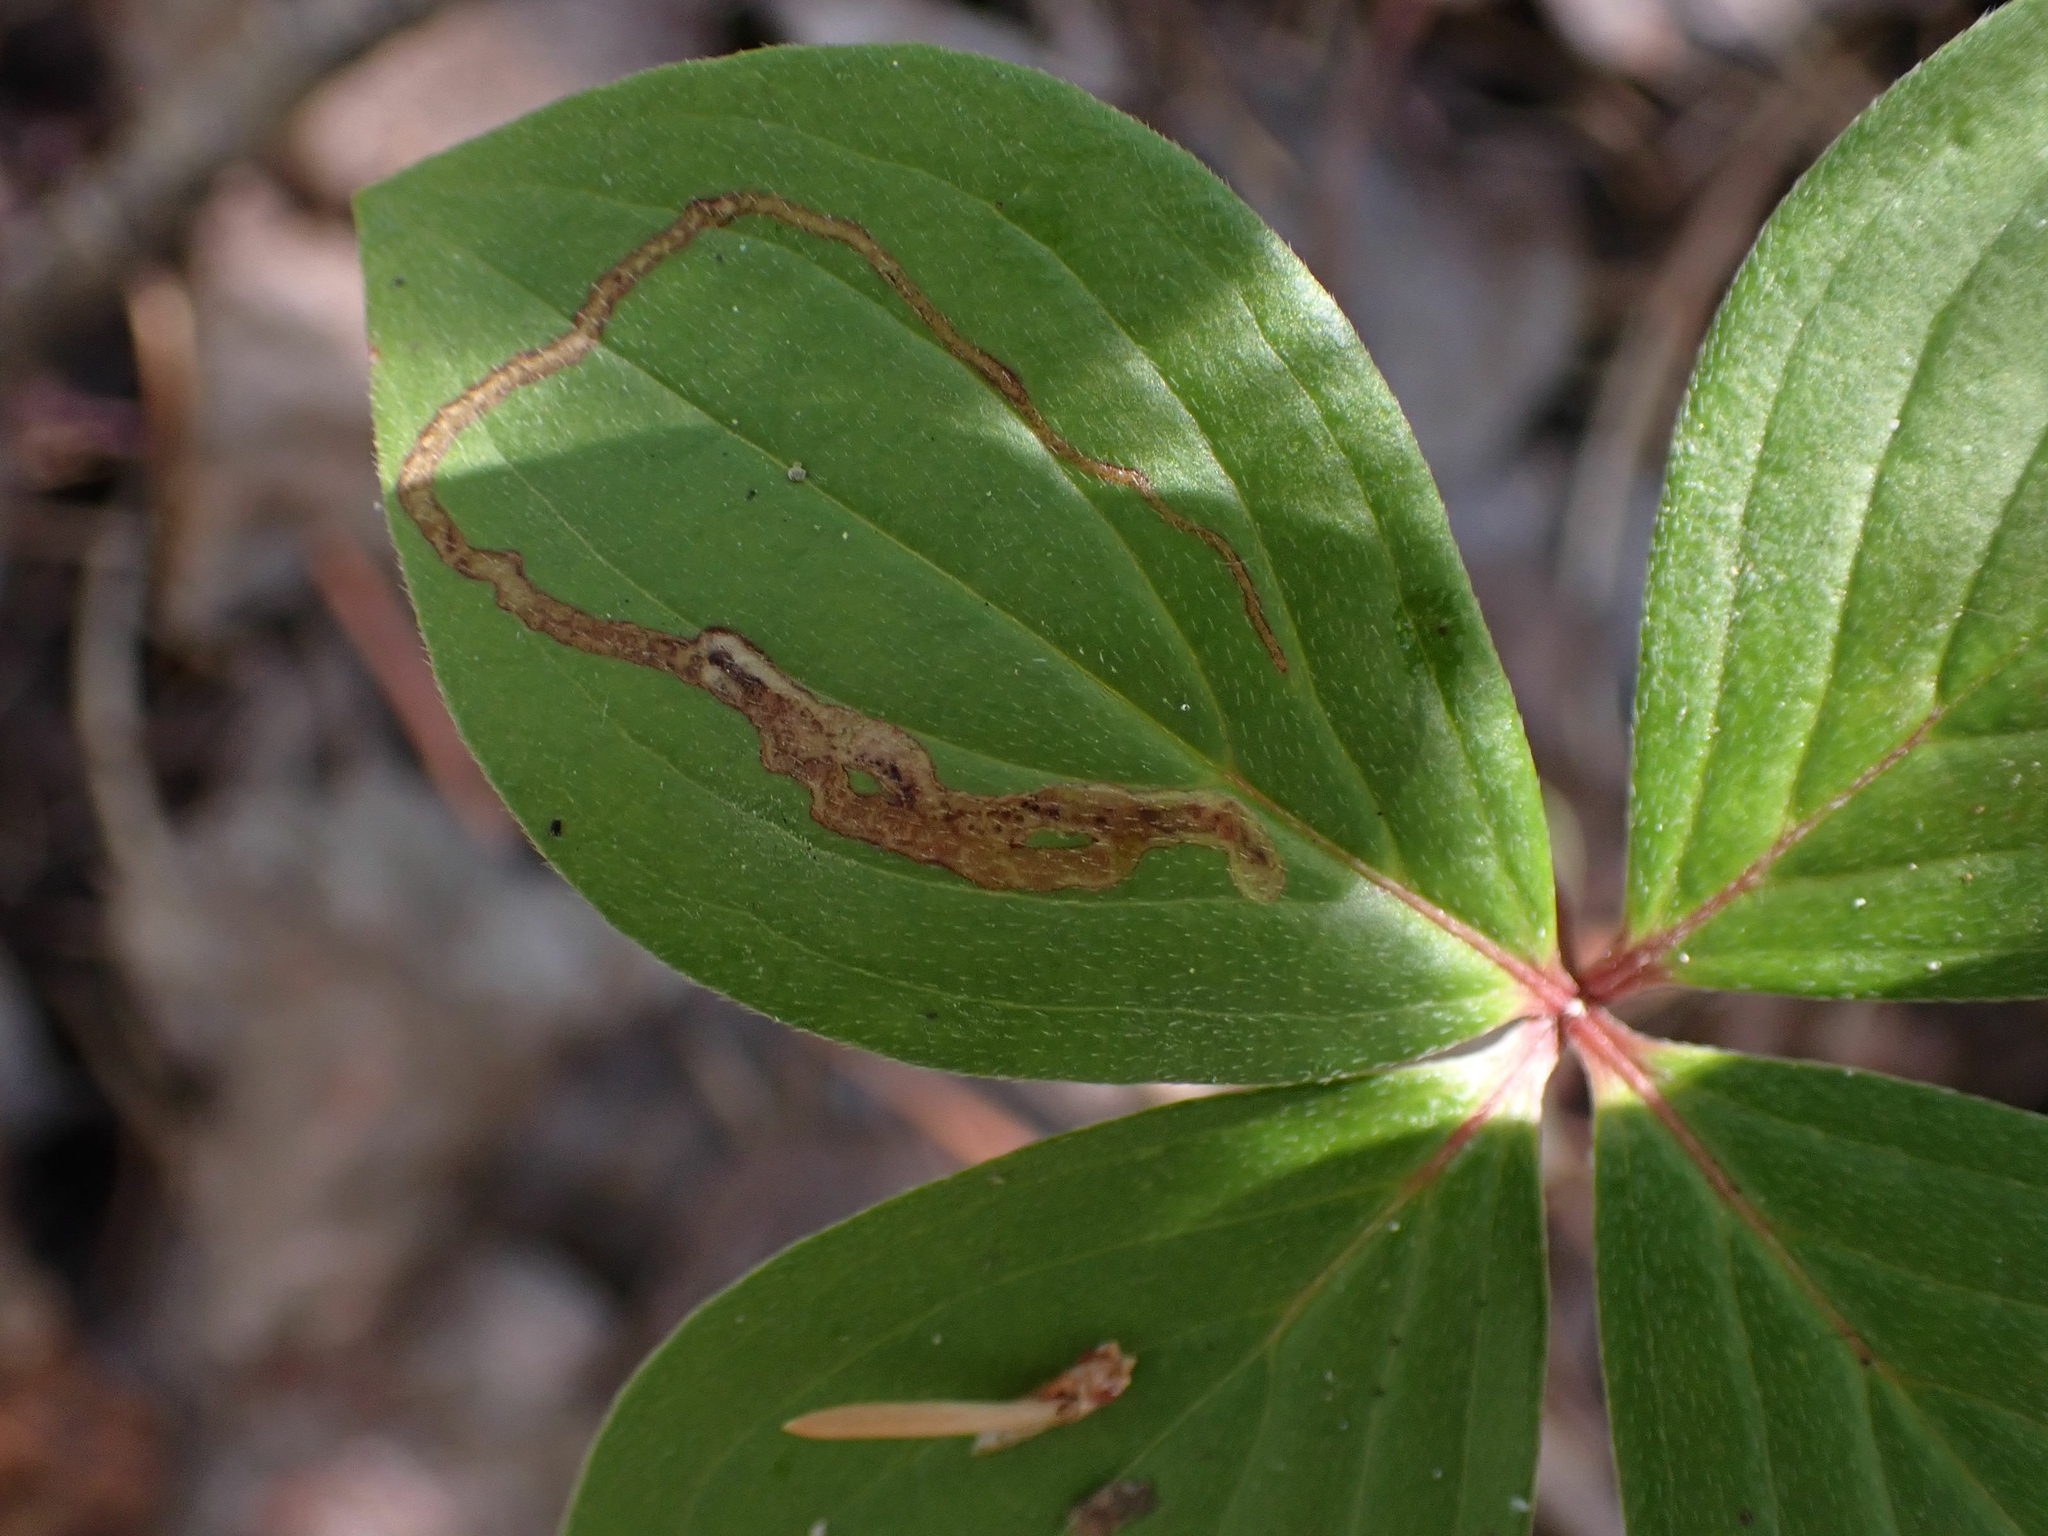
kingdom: Animalia
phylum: Arthropoda
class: Insecta
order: Diptera
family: Agromyzidae
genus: Phytomyza
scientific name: Phytomyza agromyzina
